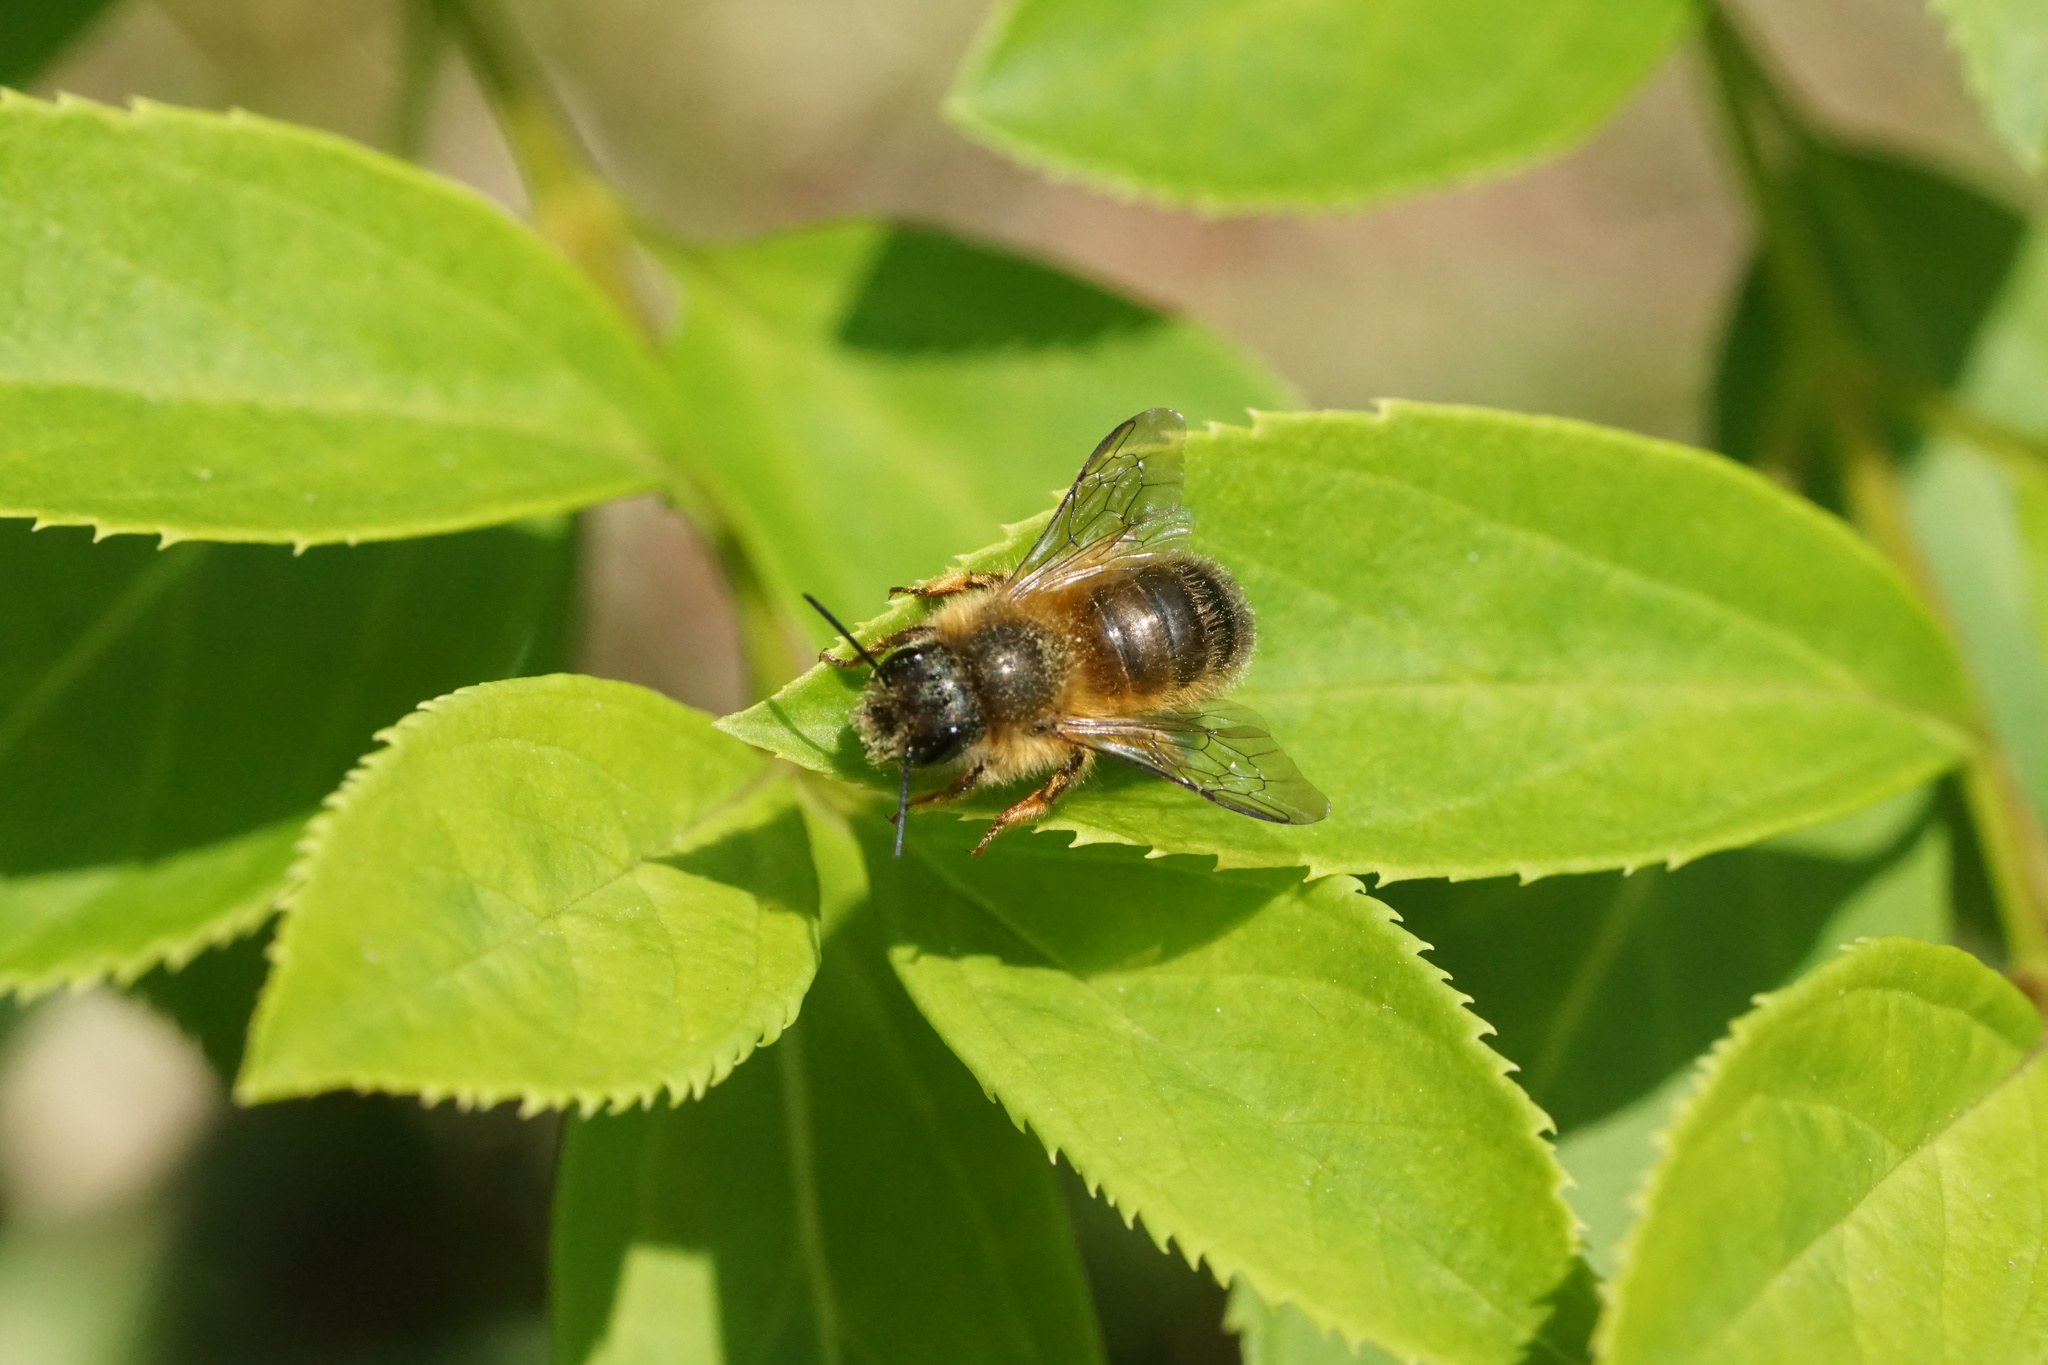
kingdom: Animalia
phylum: Arthropoda
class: Insecta
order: Hymenoptera
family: Megachilidae
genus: Osmia
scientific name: Osmia taurus
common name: Taurus mason bee
